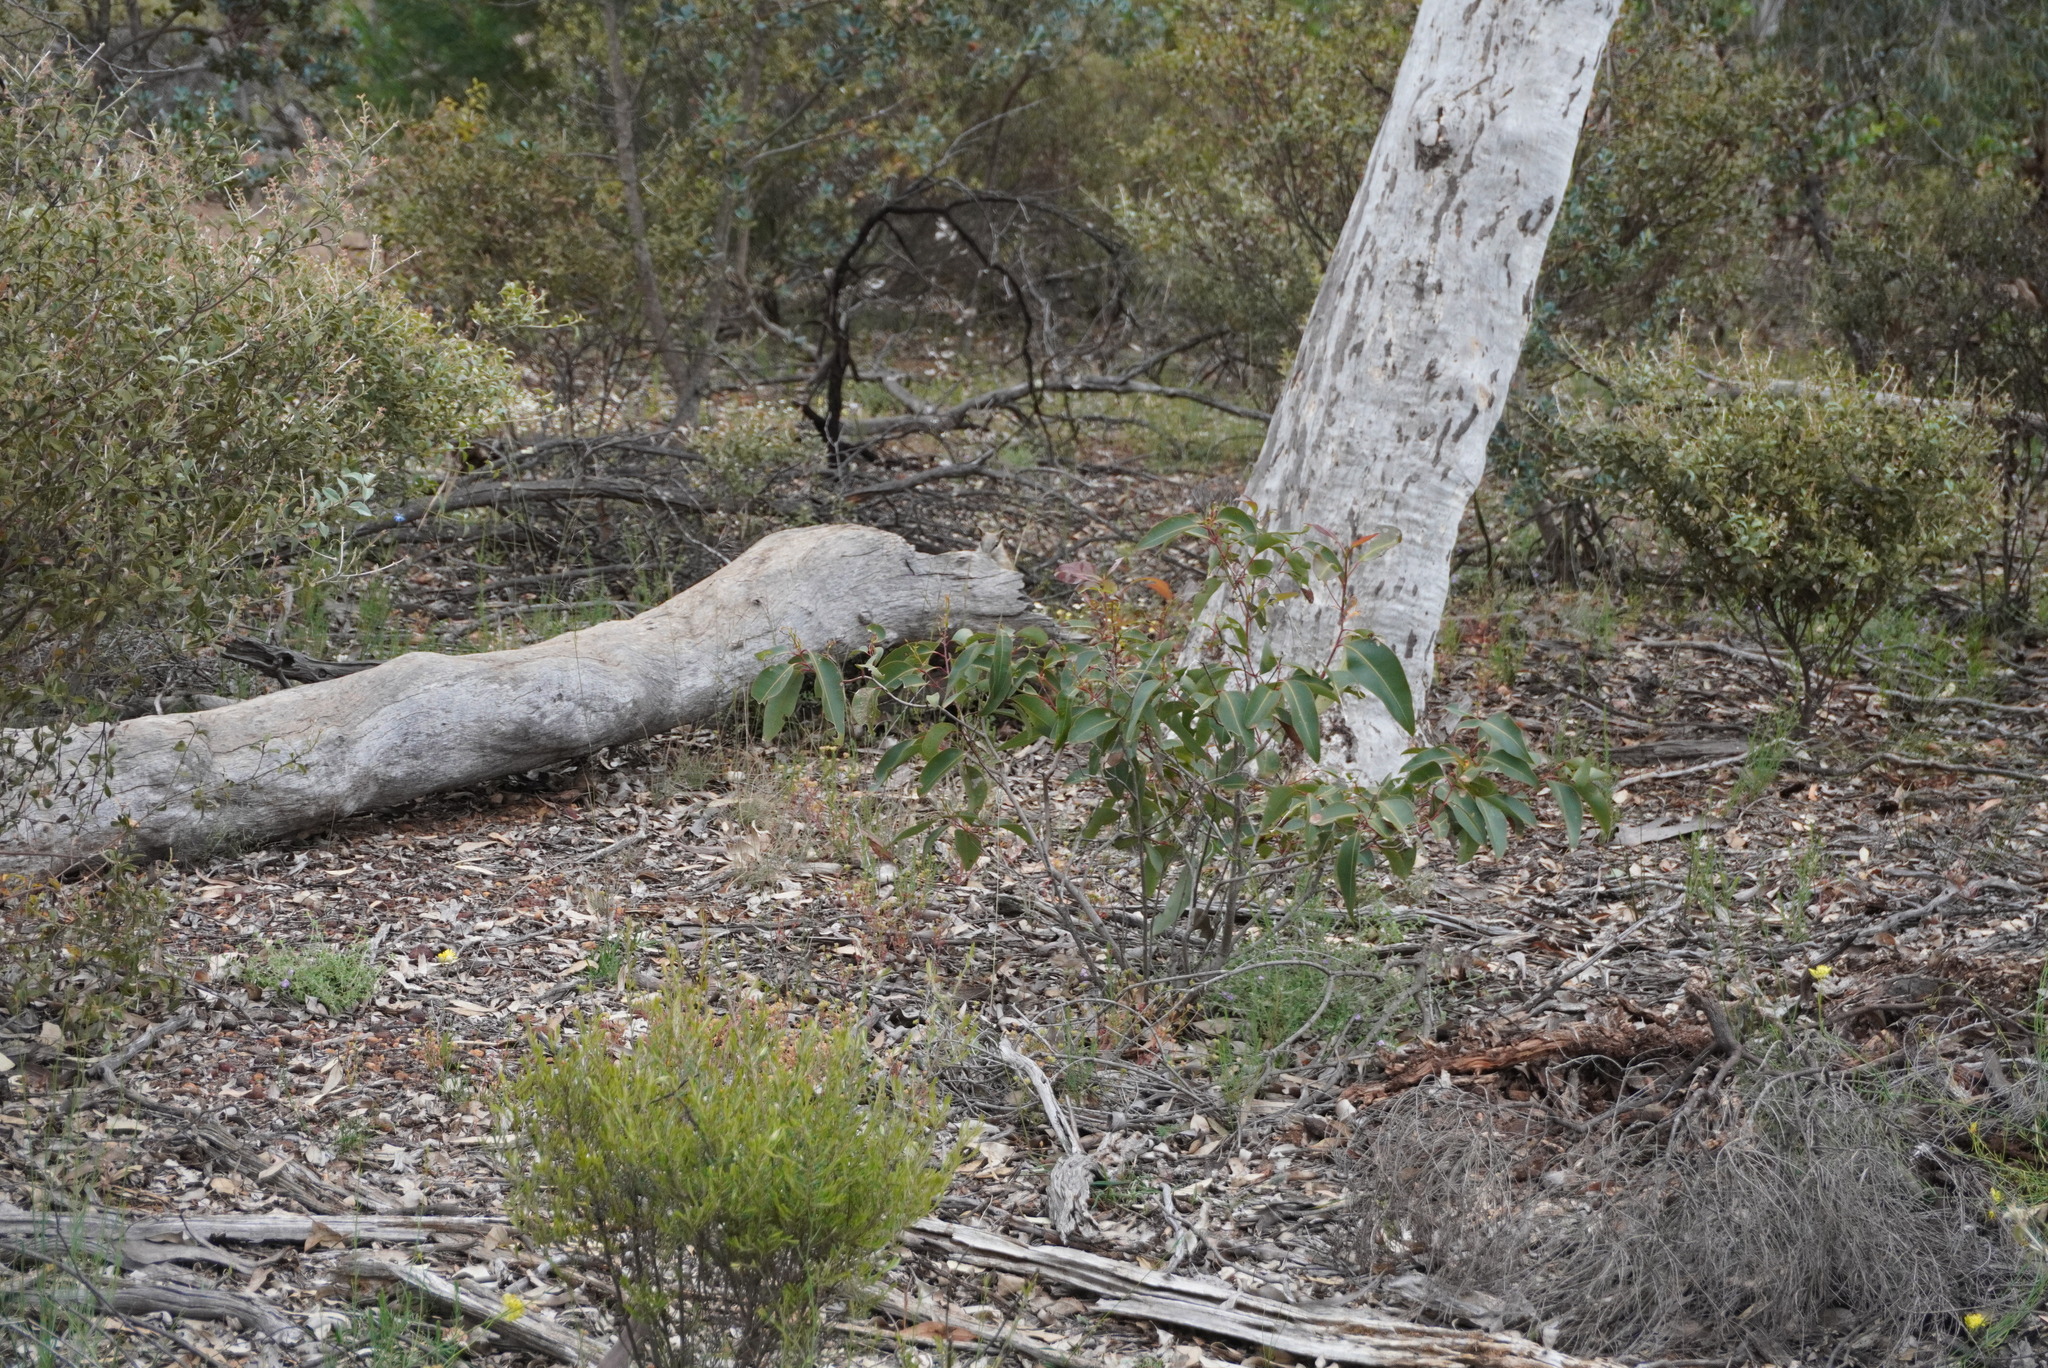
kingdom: Animalia
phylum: Chordata
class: Mammalia
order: Dasyuromorphia
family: Myrmecobiidae
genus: Myrmecobius
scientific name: Myrmecobius fasciatus
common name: Numbat
